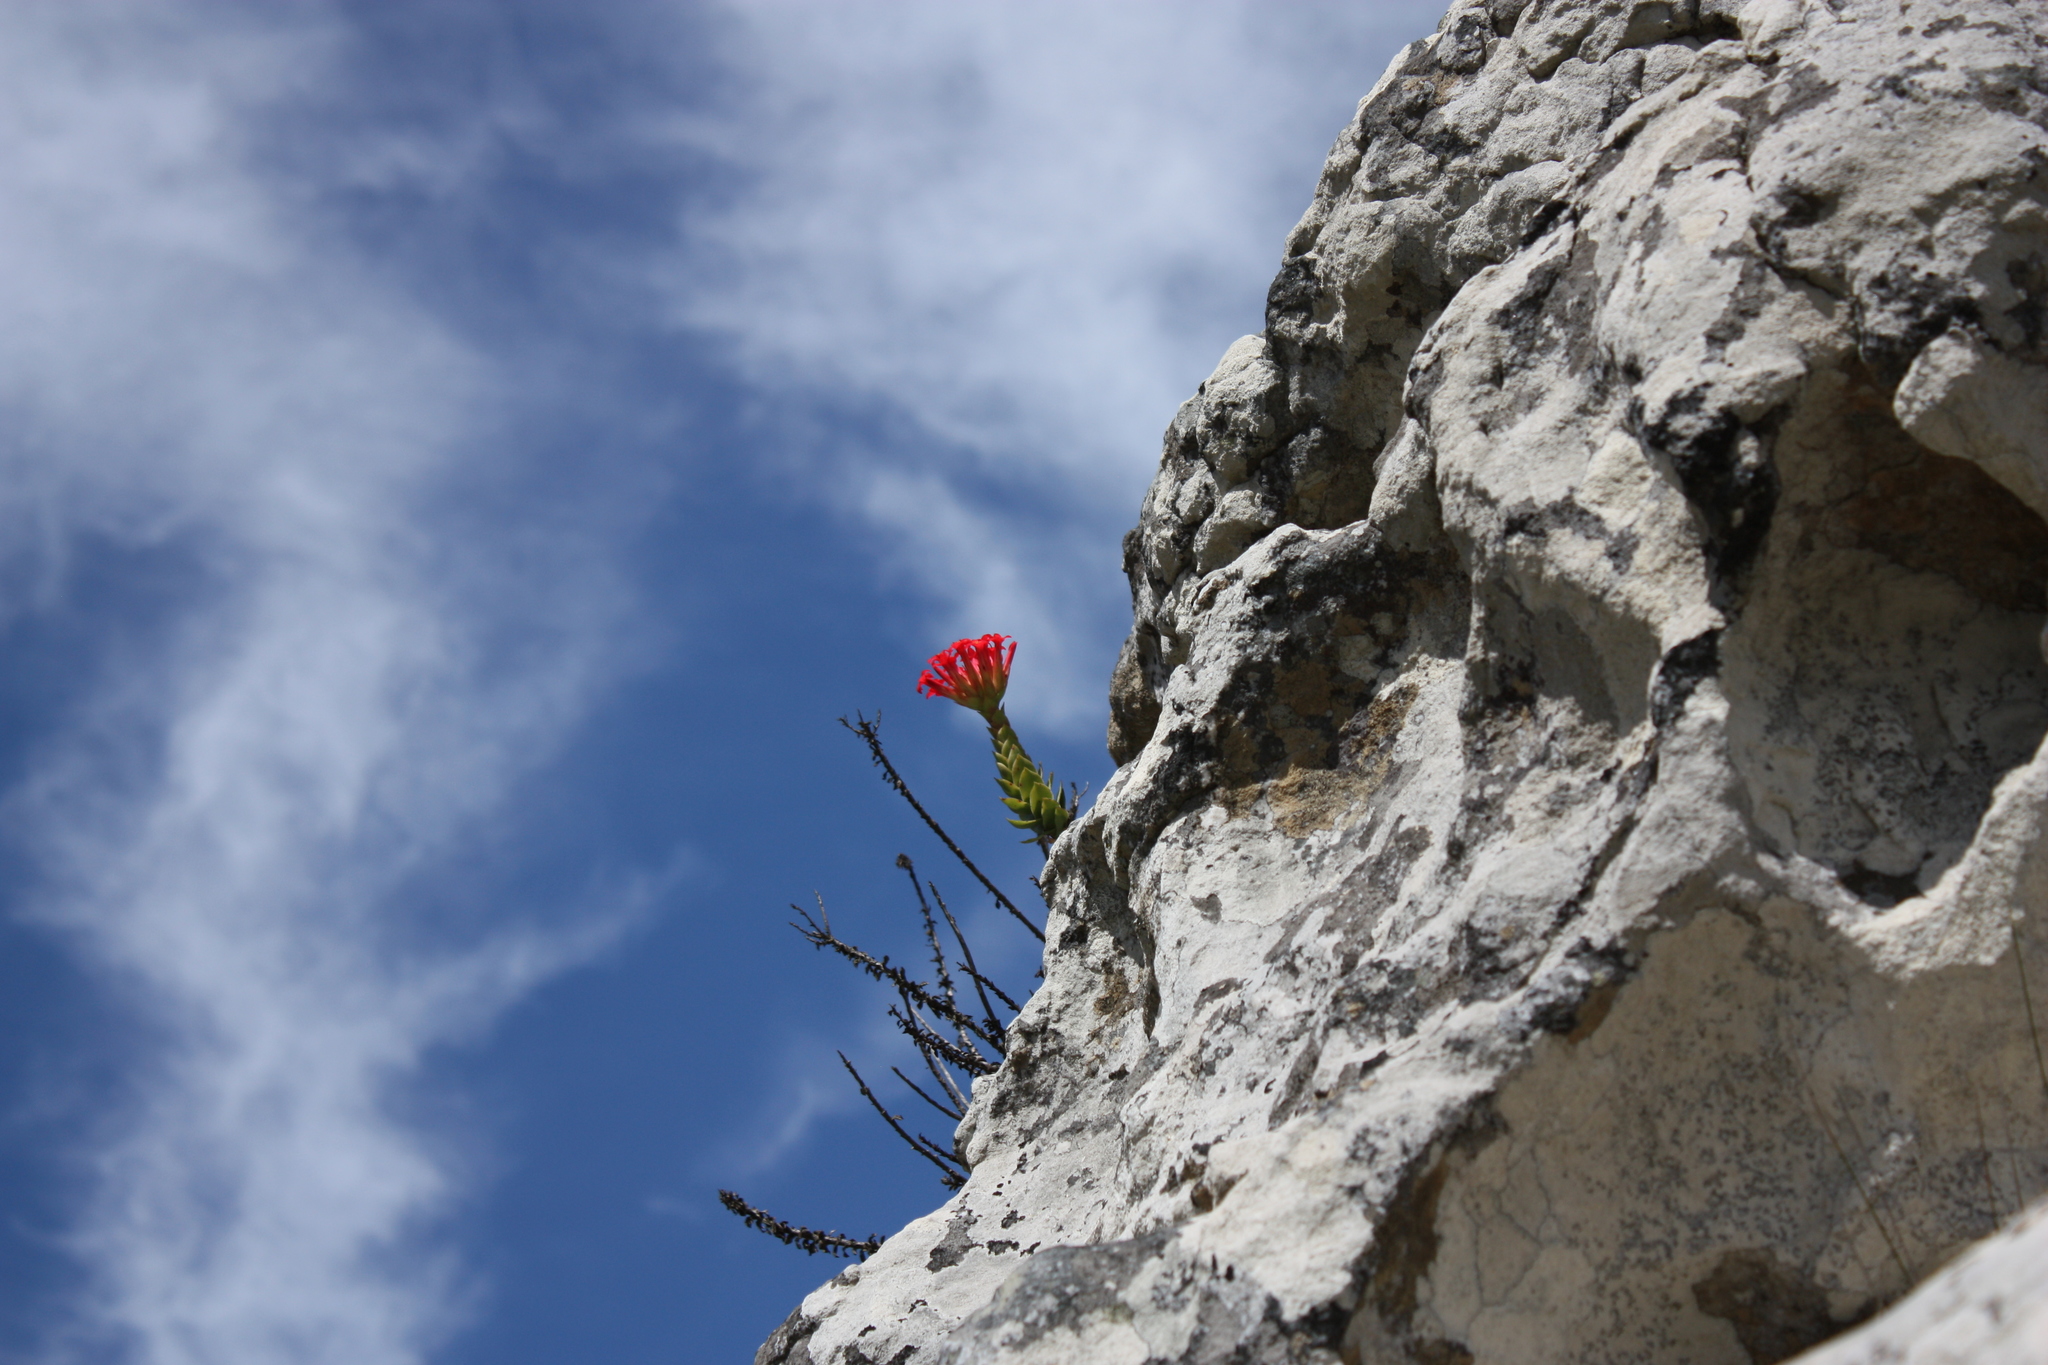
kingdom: Plantae
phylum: Tracheophyta
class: Magnoliopsida
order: Saxifragales
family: Crassulaceae
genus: Crassula
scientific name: Crassula coccinea
